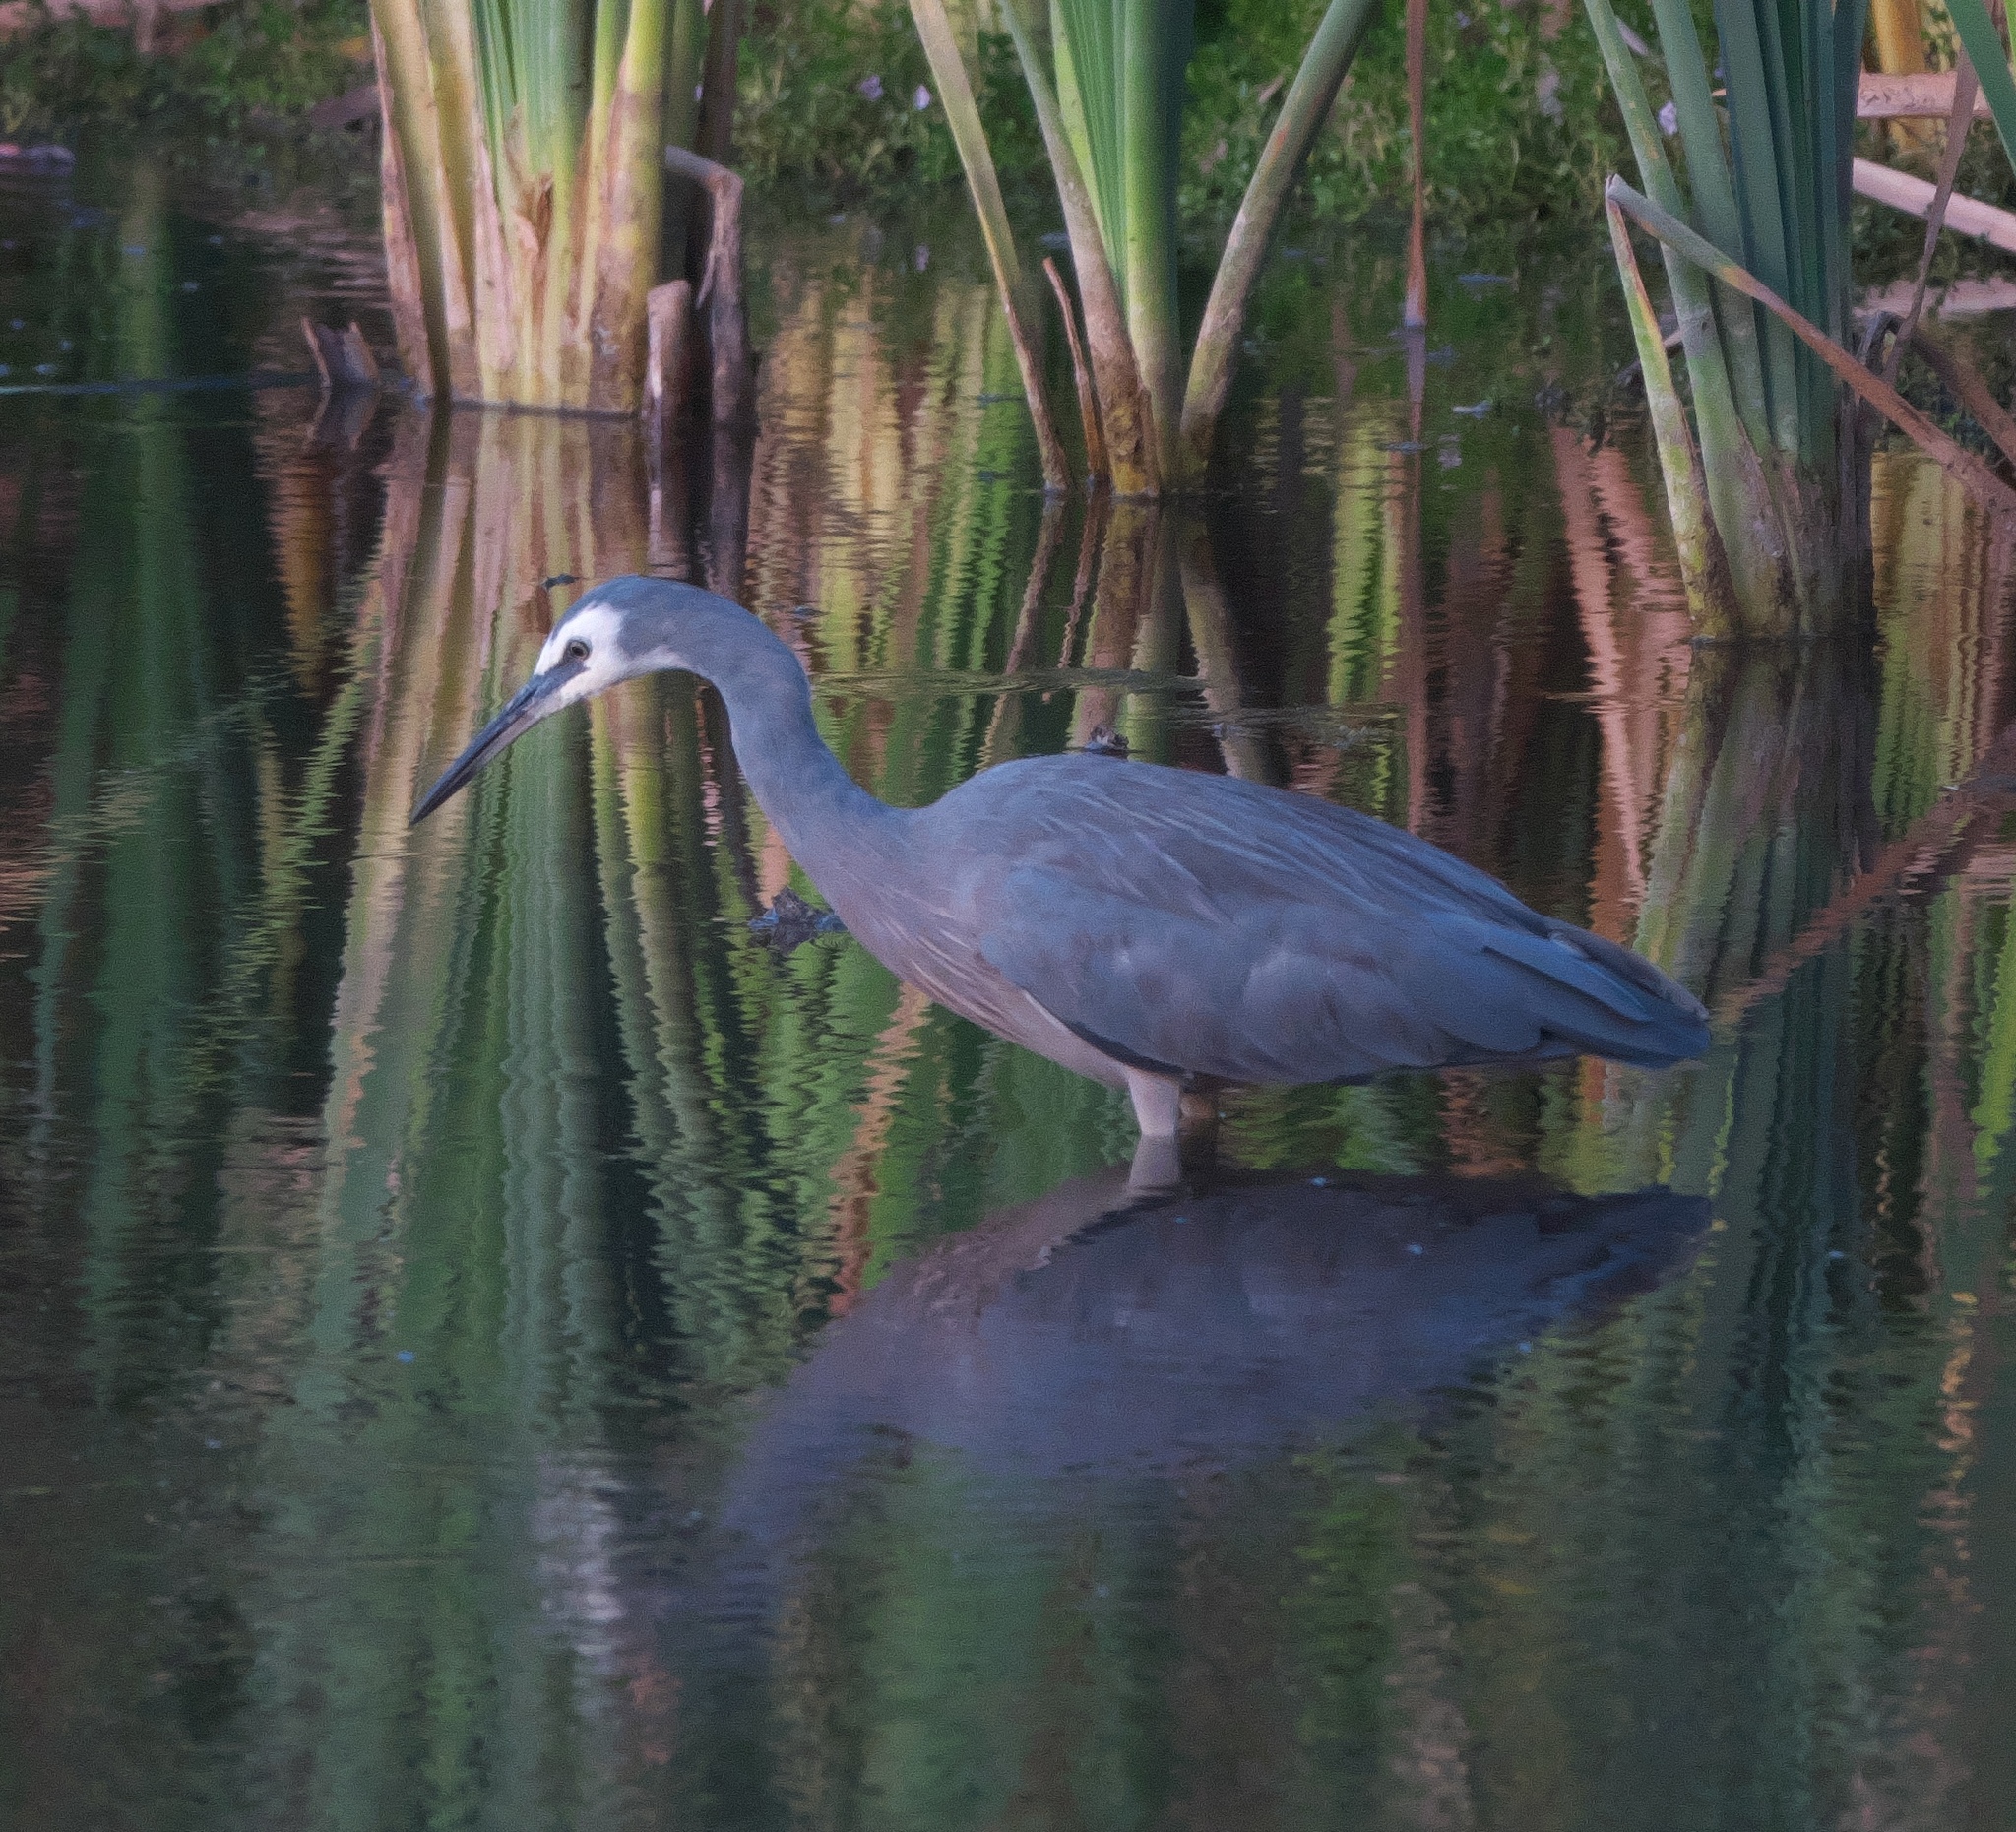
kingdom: Animalia
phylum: Chordata
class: Aves
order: Pelecaniformes
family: Ardeidae
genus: Egretta
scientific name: Egretta novaehollandiae
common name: White-faced heron
